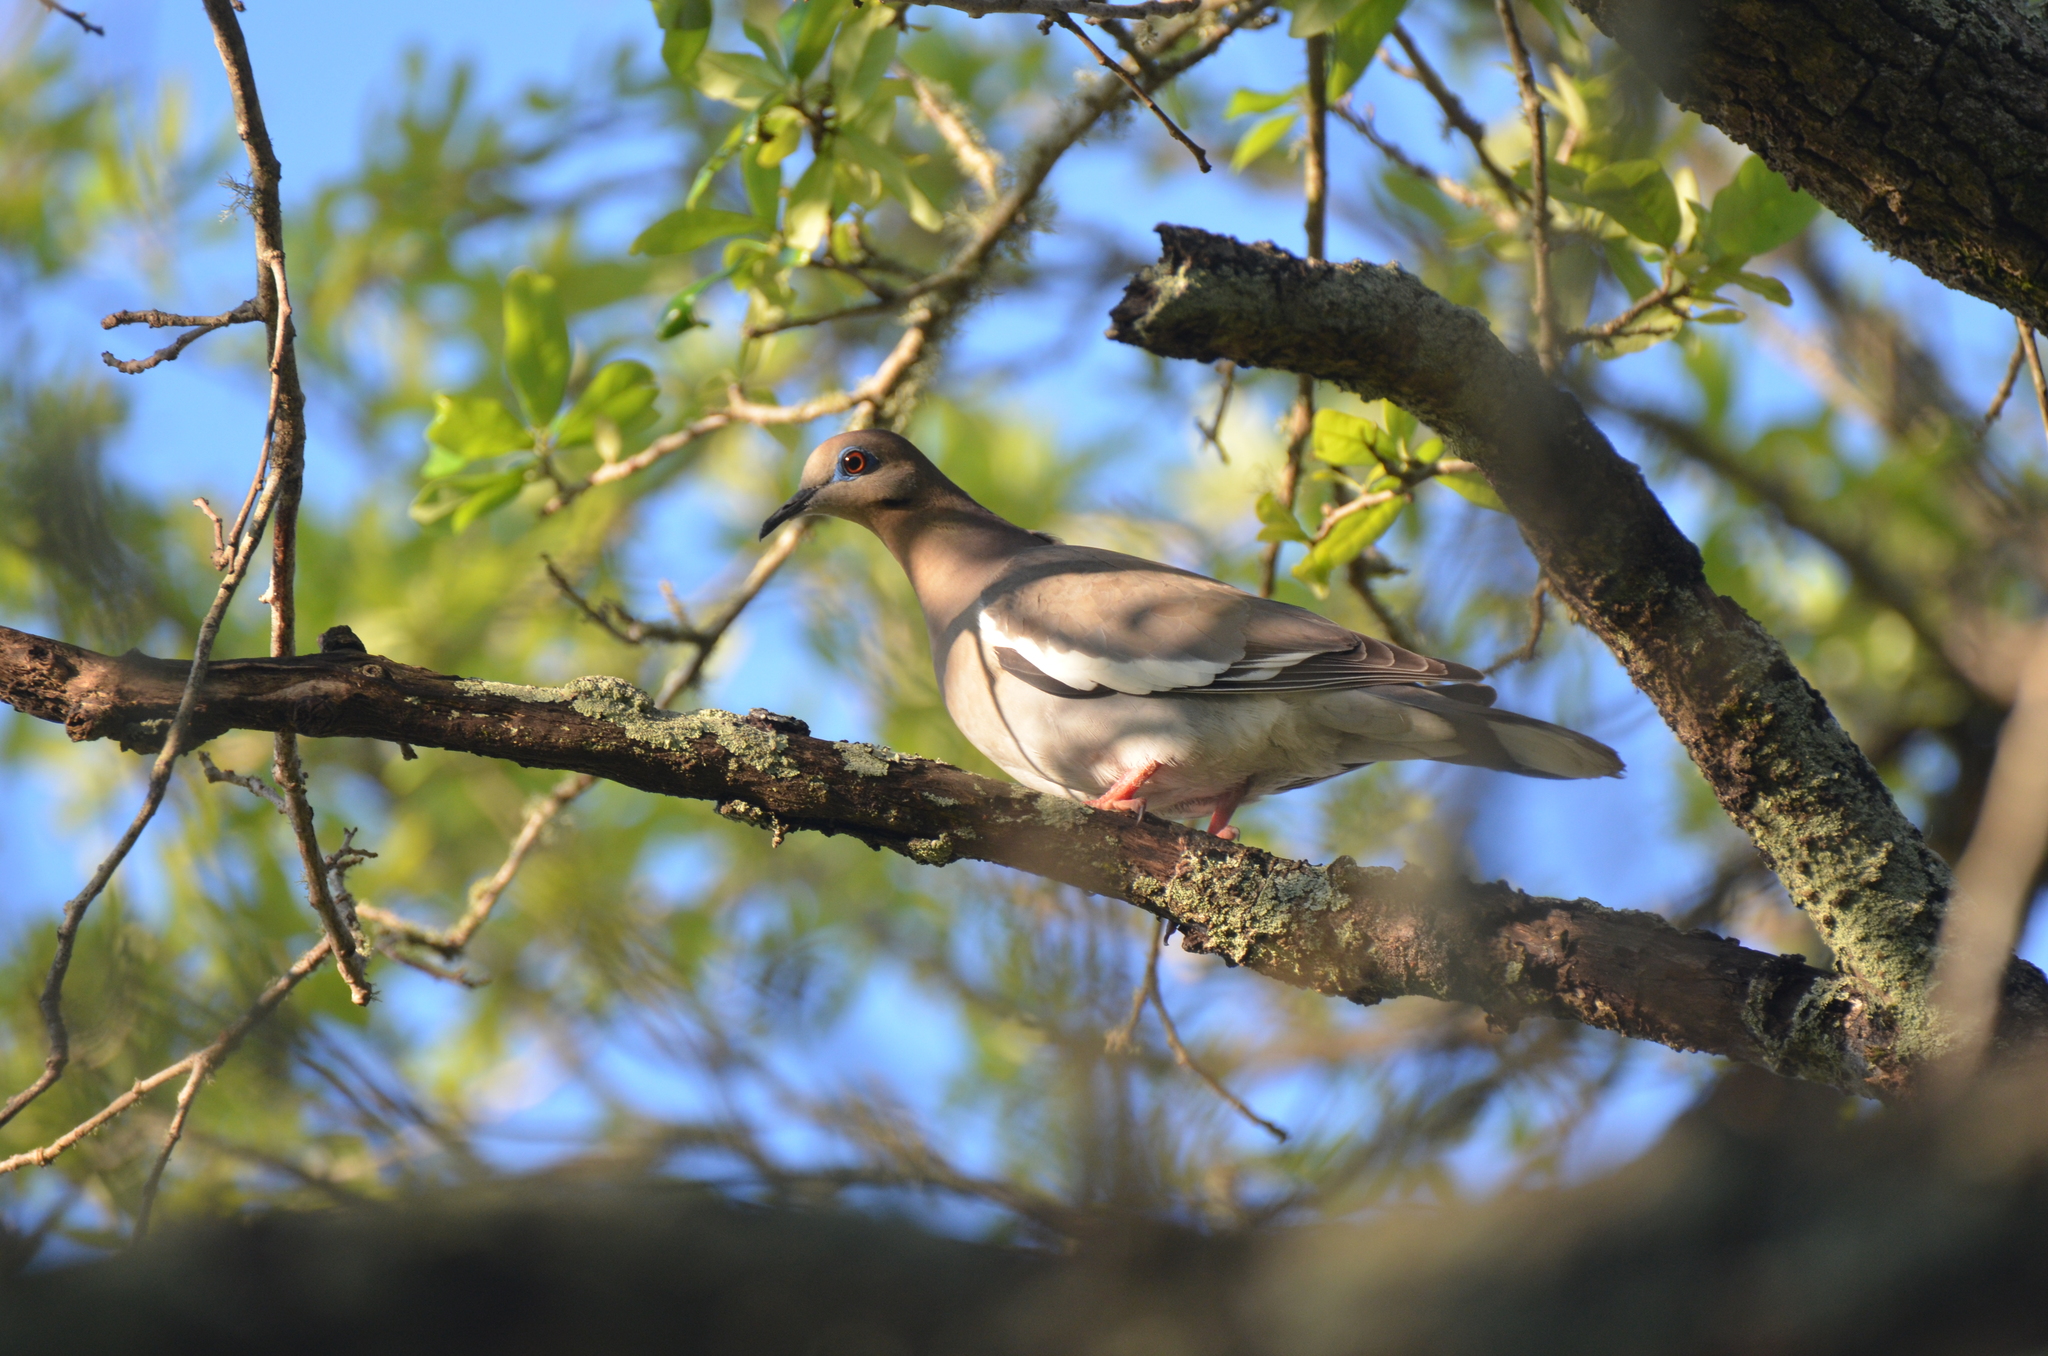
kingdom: Animalia
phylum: Chordata
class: Aves
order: Columbiformes
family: Columbidae
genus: Zenaida
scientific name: Zenaida asiatica
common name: White-winged dove
